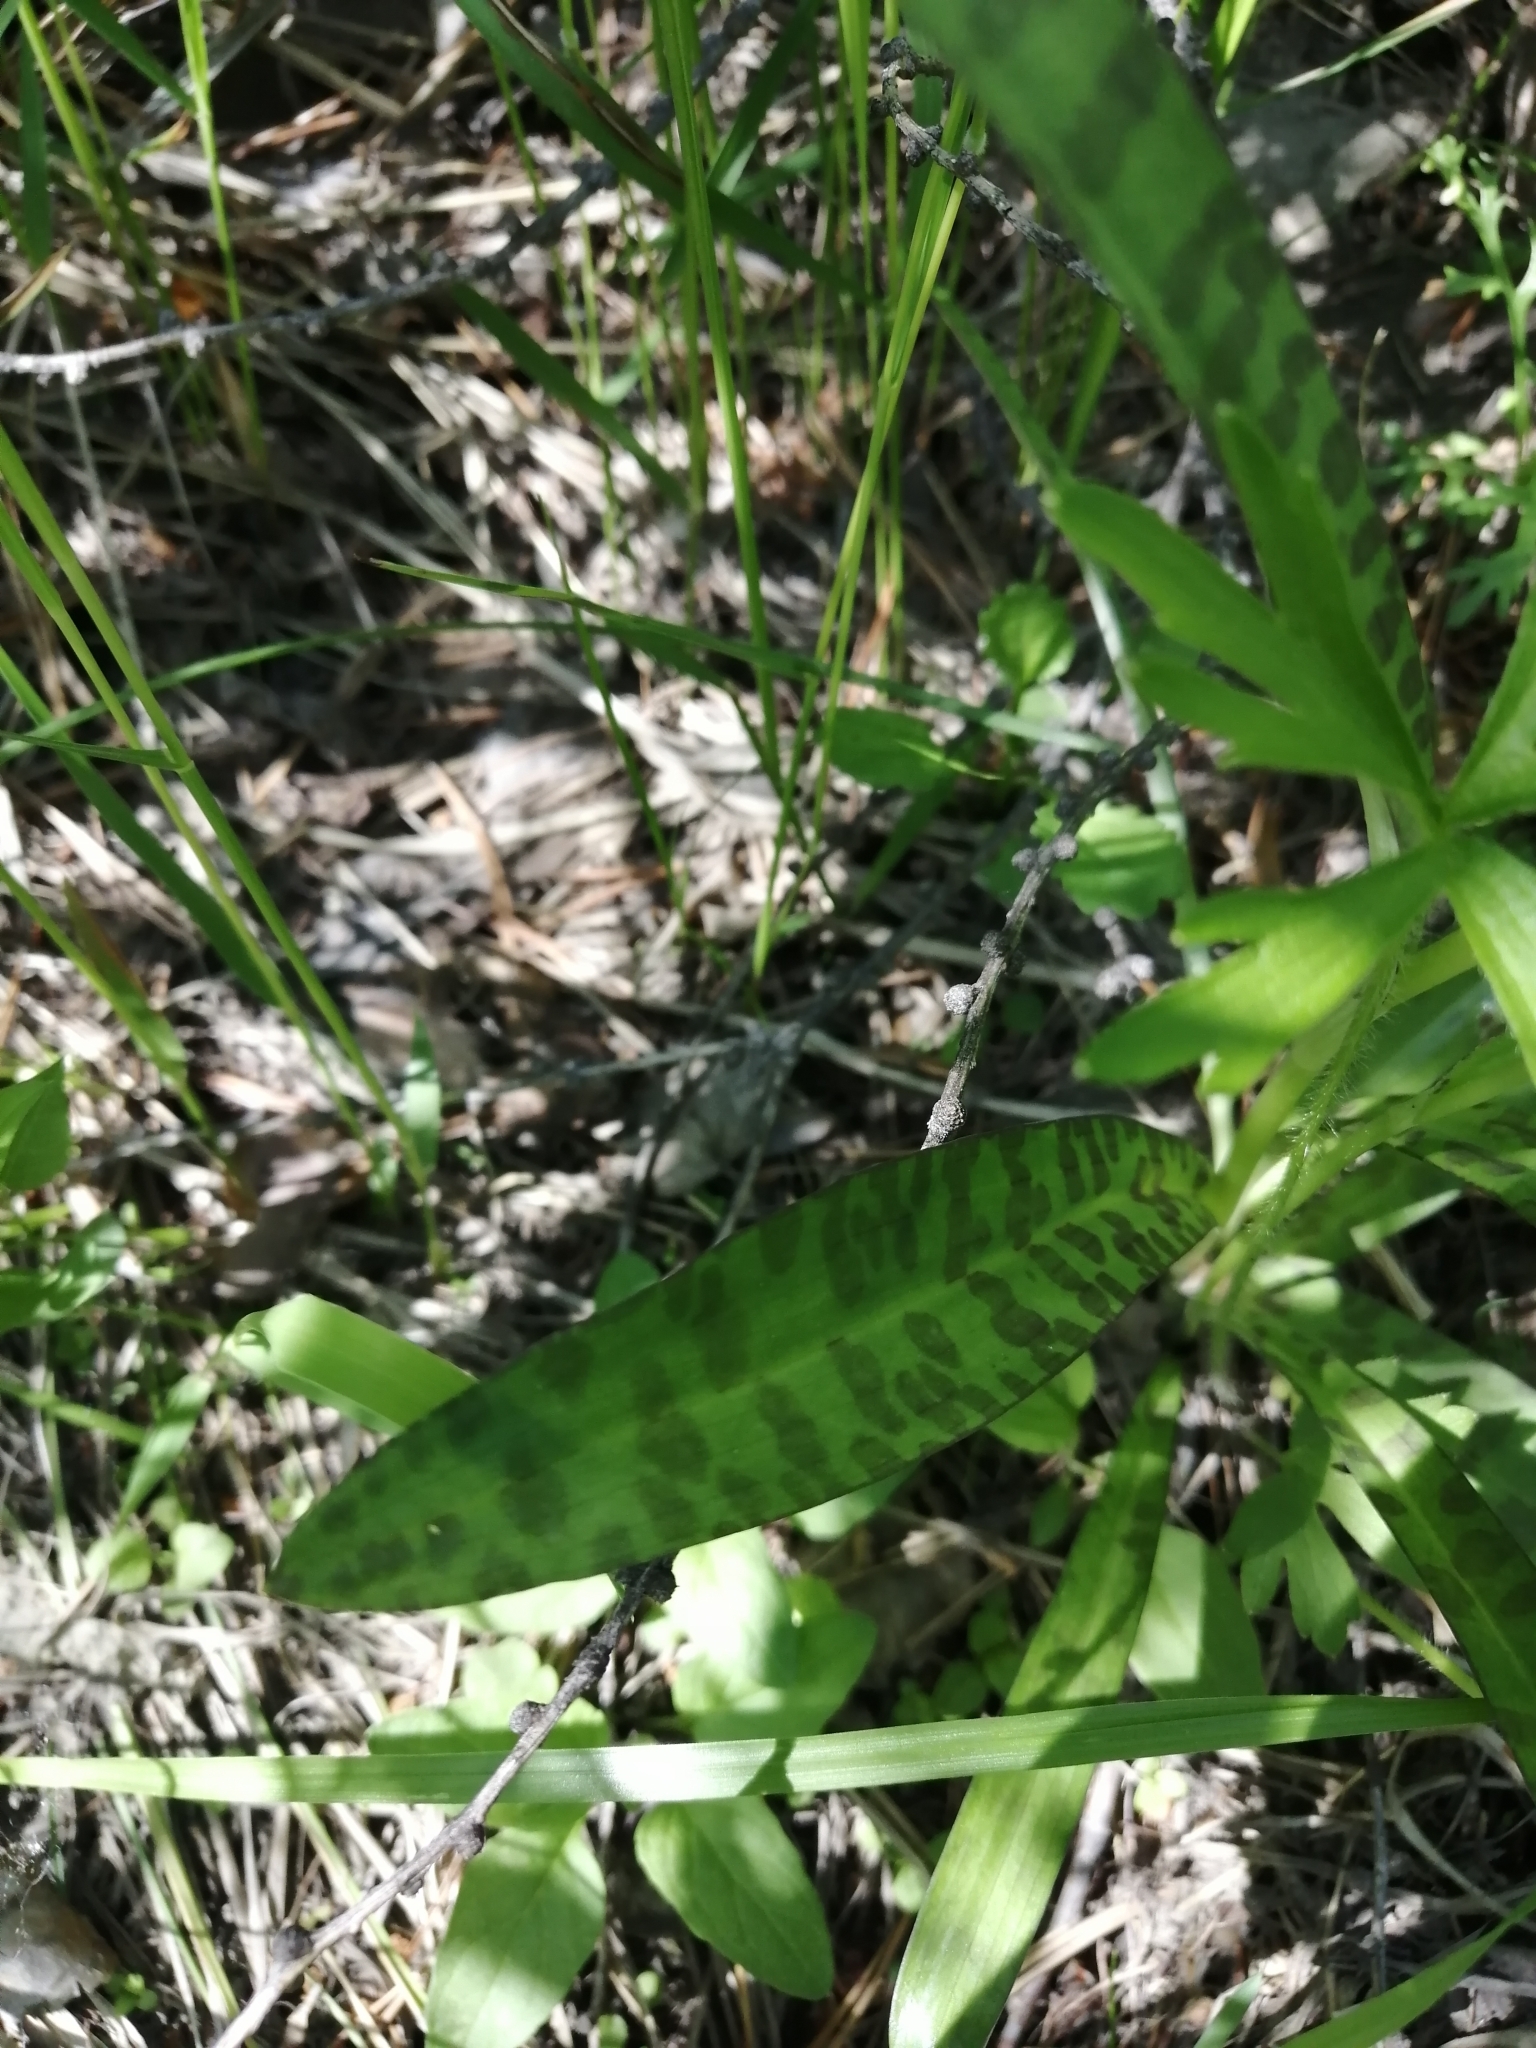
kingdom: Plantae
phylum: Tracheophyta
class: Liliopsida
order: Asparagales
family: Orchidaceae
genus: Dactylorhiza
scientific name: Dactylorhiza maculata
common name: Heath spotted-orchid
